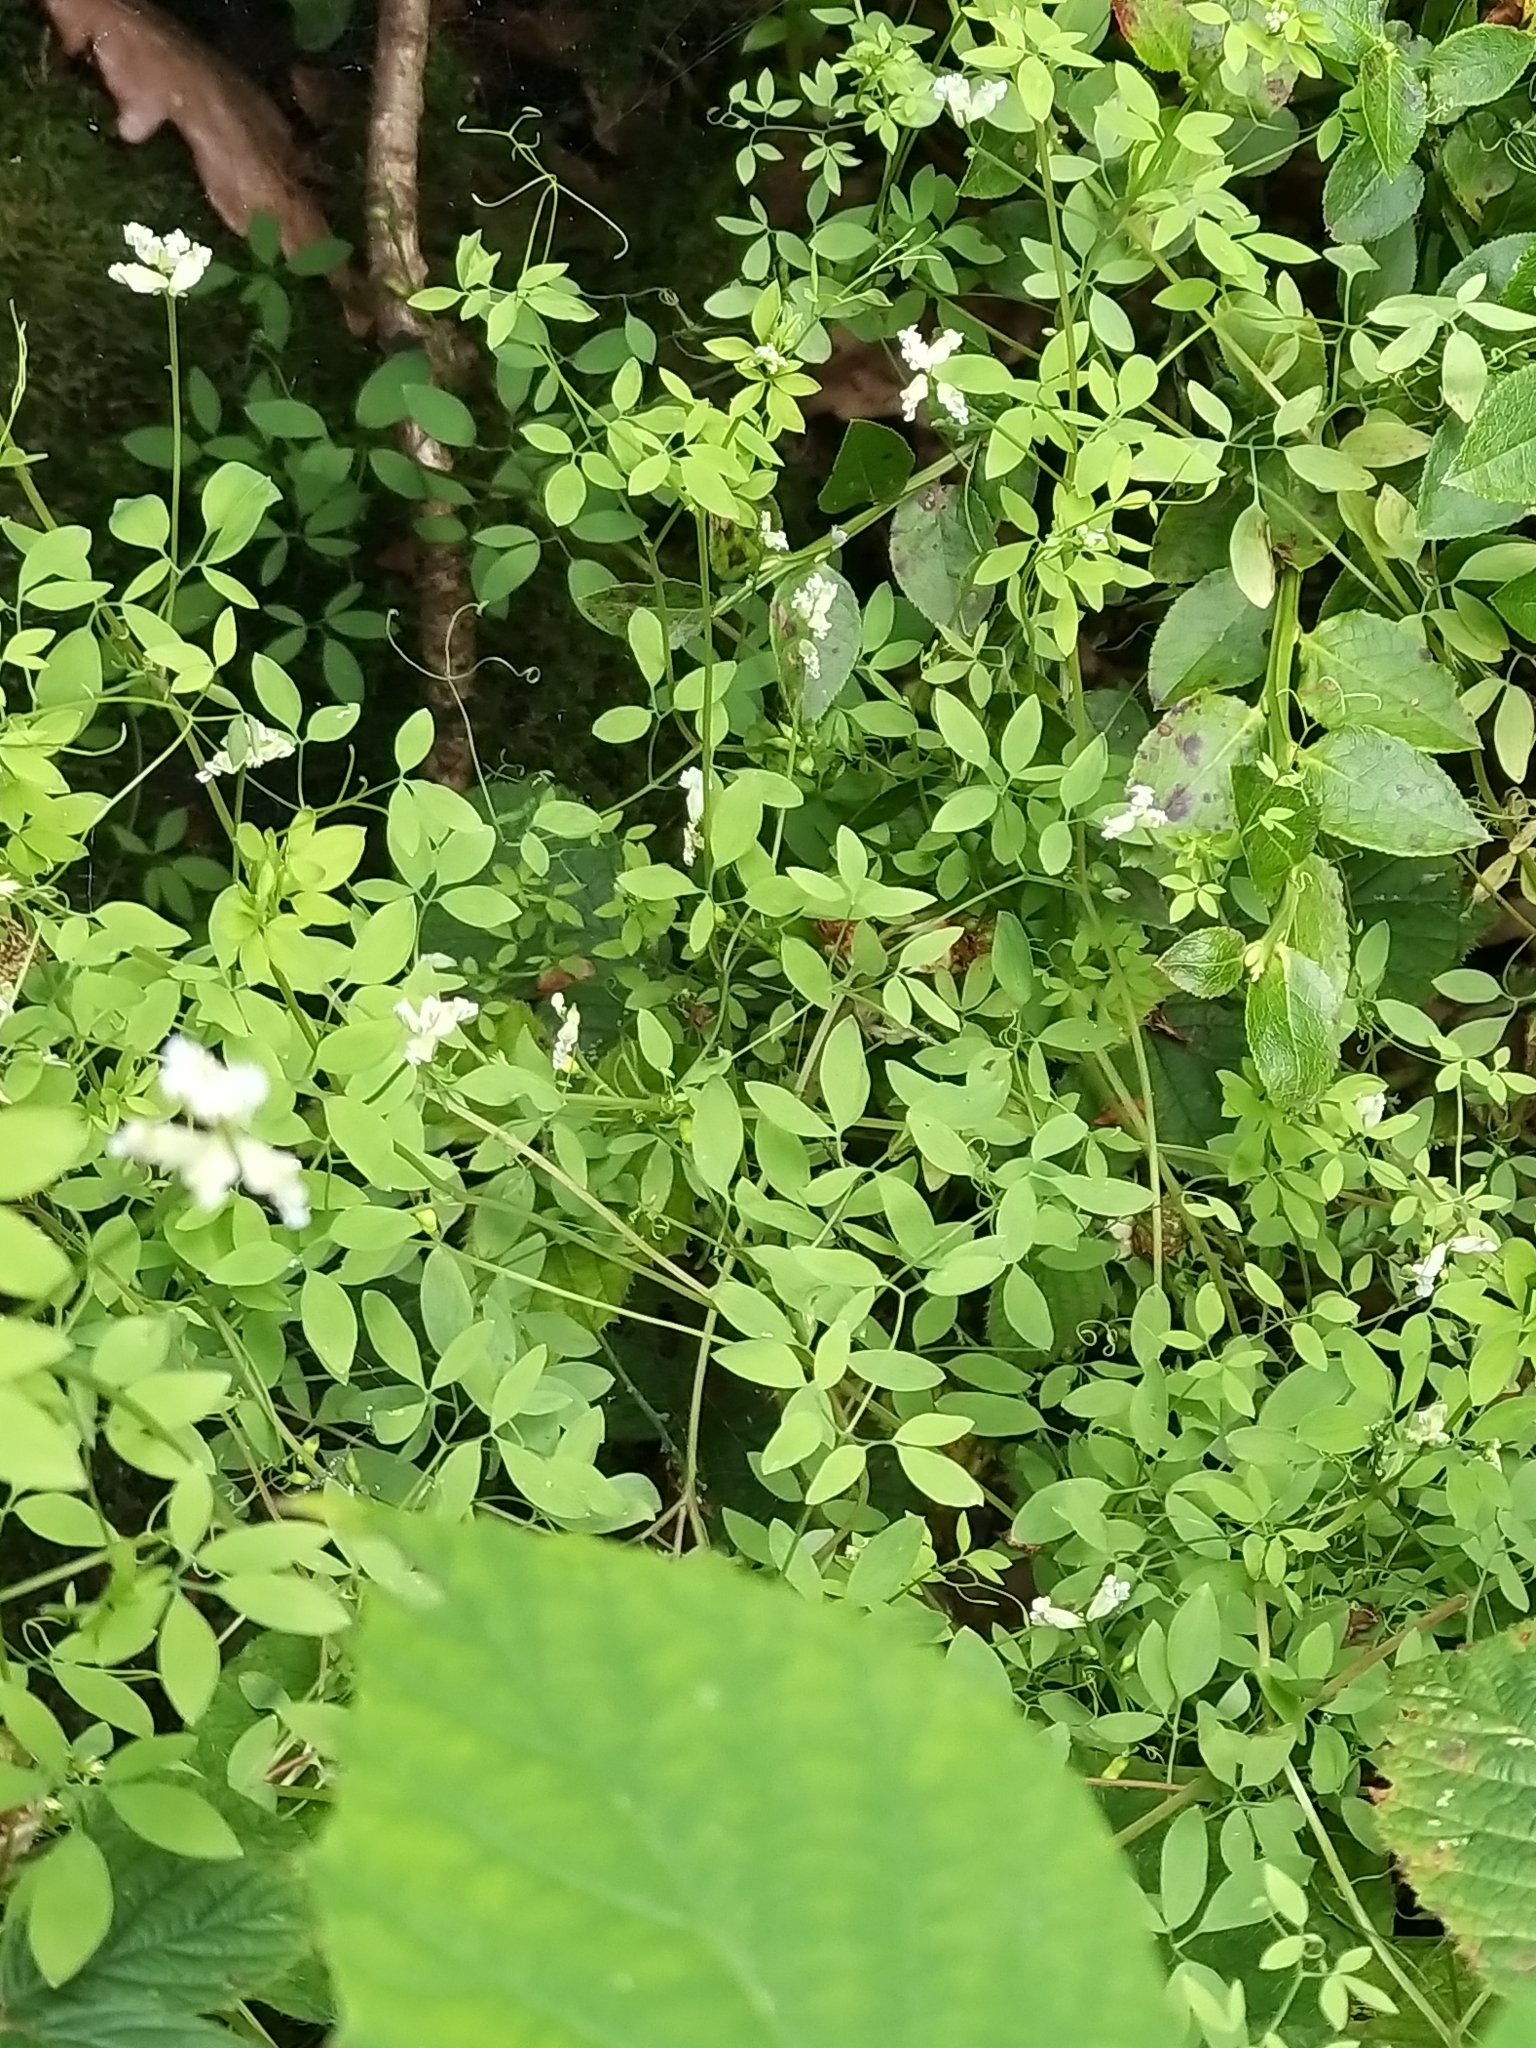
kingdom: Plantae
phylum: Tracheophyta
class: Magnoliopsida
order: Ranunculales
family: Papaveraceae
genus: Ceratocapnos
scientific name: Ceratocapnos claviculata
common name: Climbing corydalis
